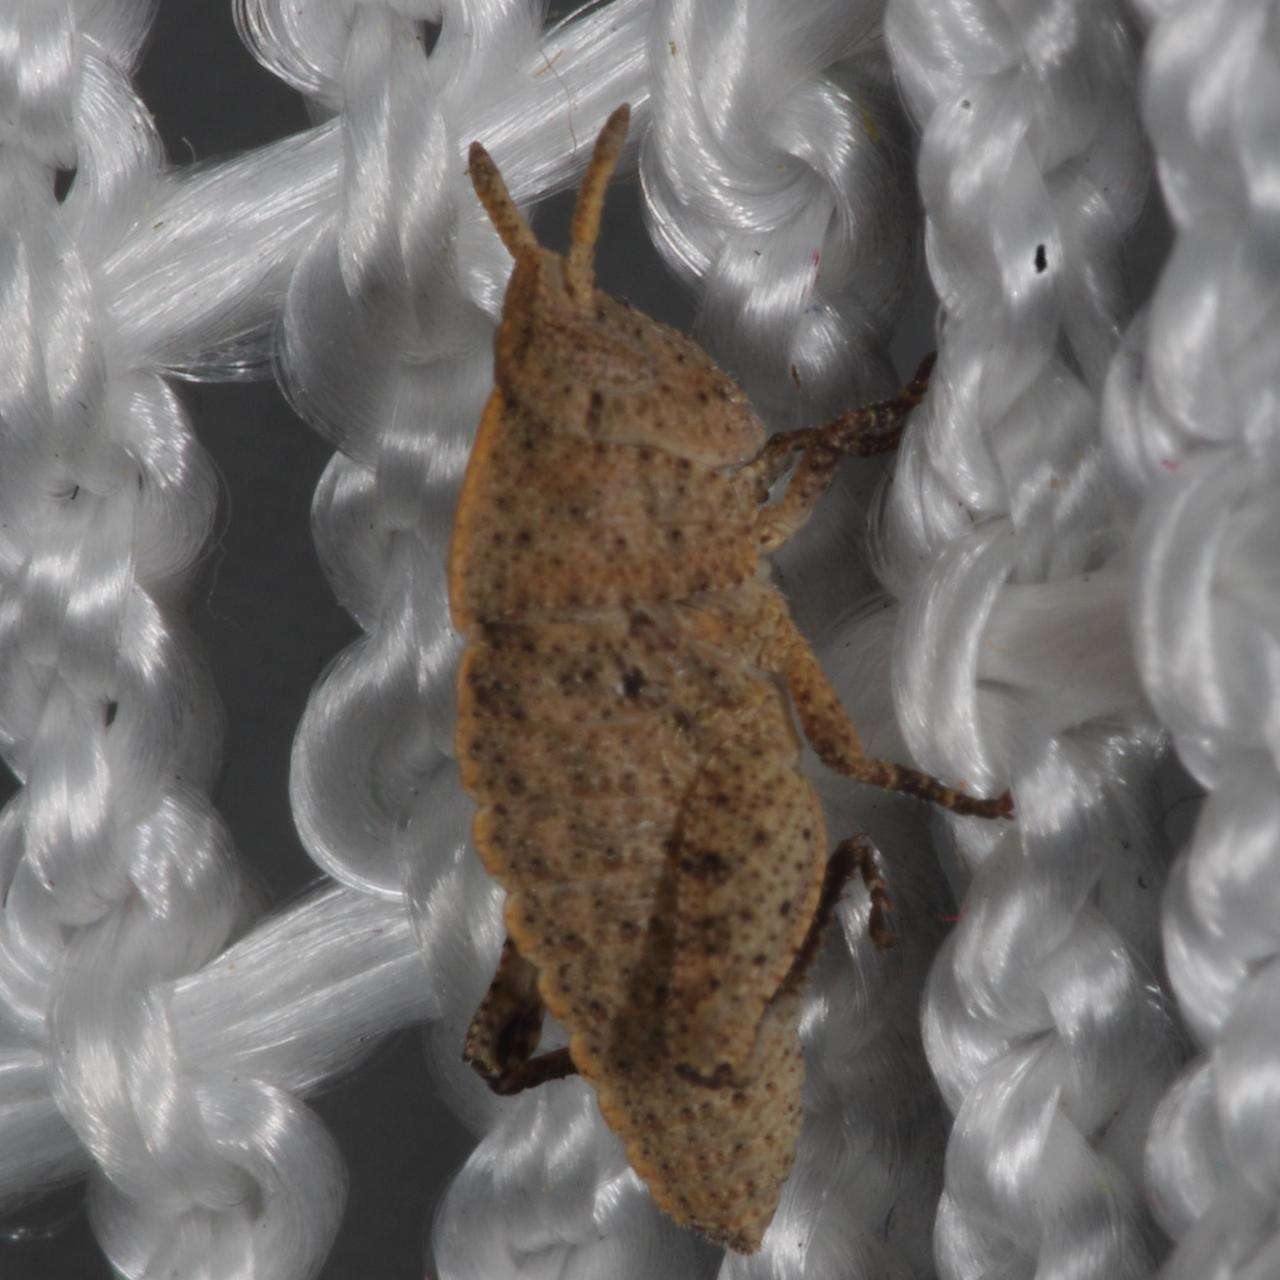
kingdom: Animalia
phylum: Arthropoda
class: Insecta
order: Orthoptera
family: Acrididae
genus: Goniaea
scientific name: Goniaea australasiae
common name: Gumleaf grasshopper
